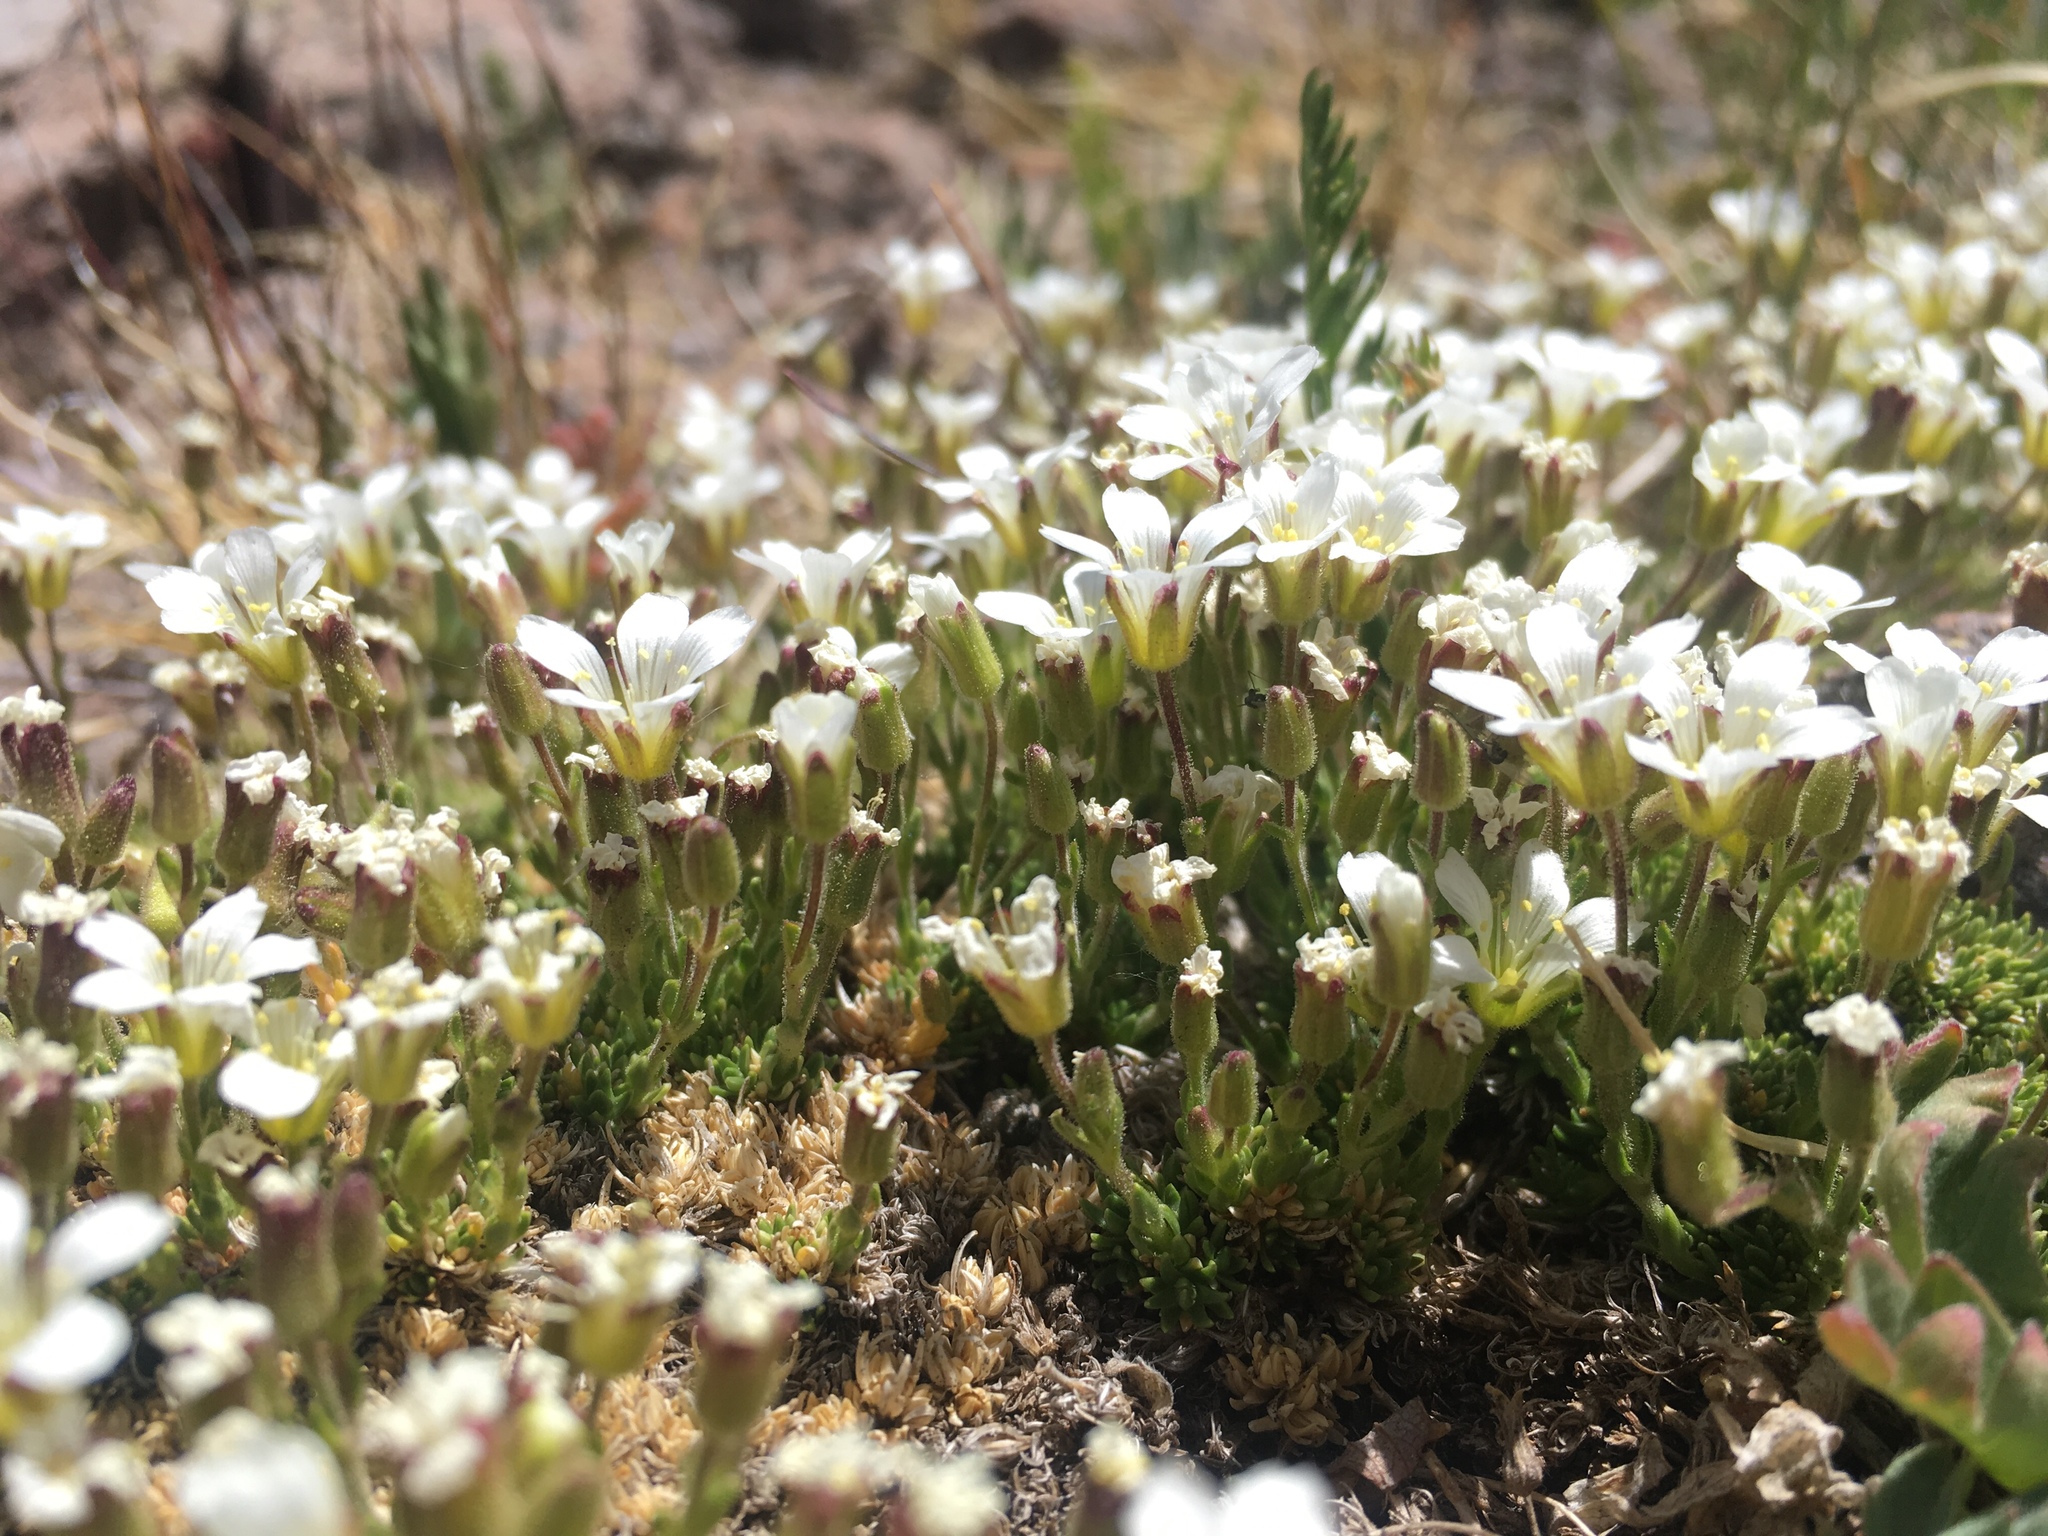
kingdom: Plantae
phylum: Tracheophyta
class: Magnoliopsida
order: Caryophyllales
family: Caryophyllaceae
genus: Cherleria
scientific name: Cherleria obtusiloba
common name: Alpine stitchwort
